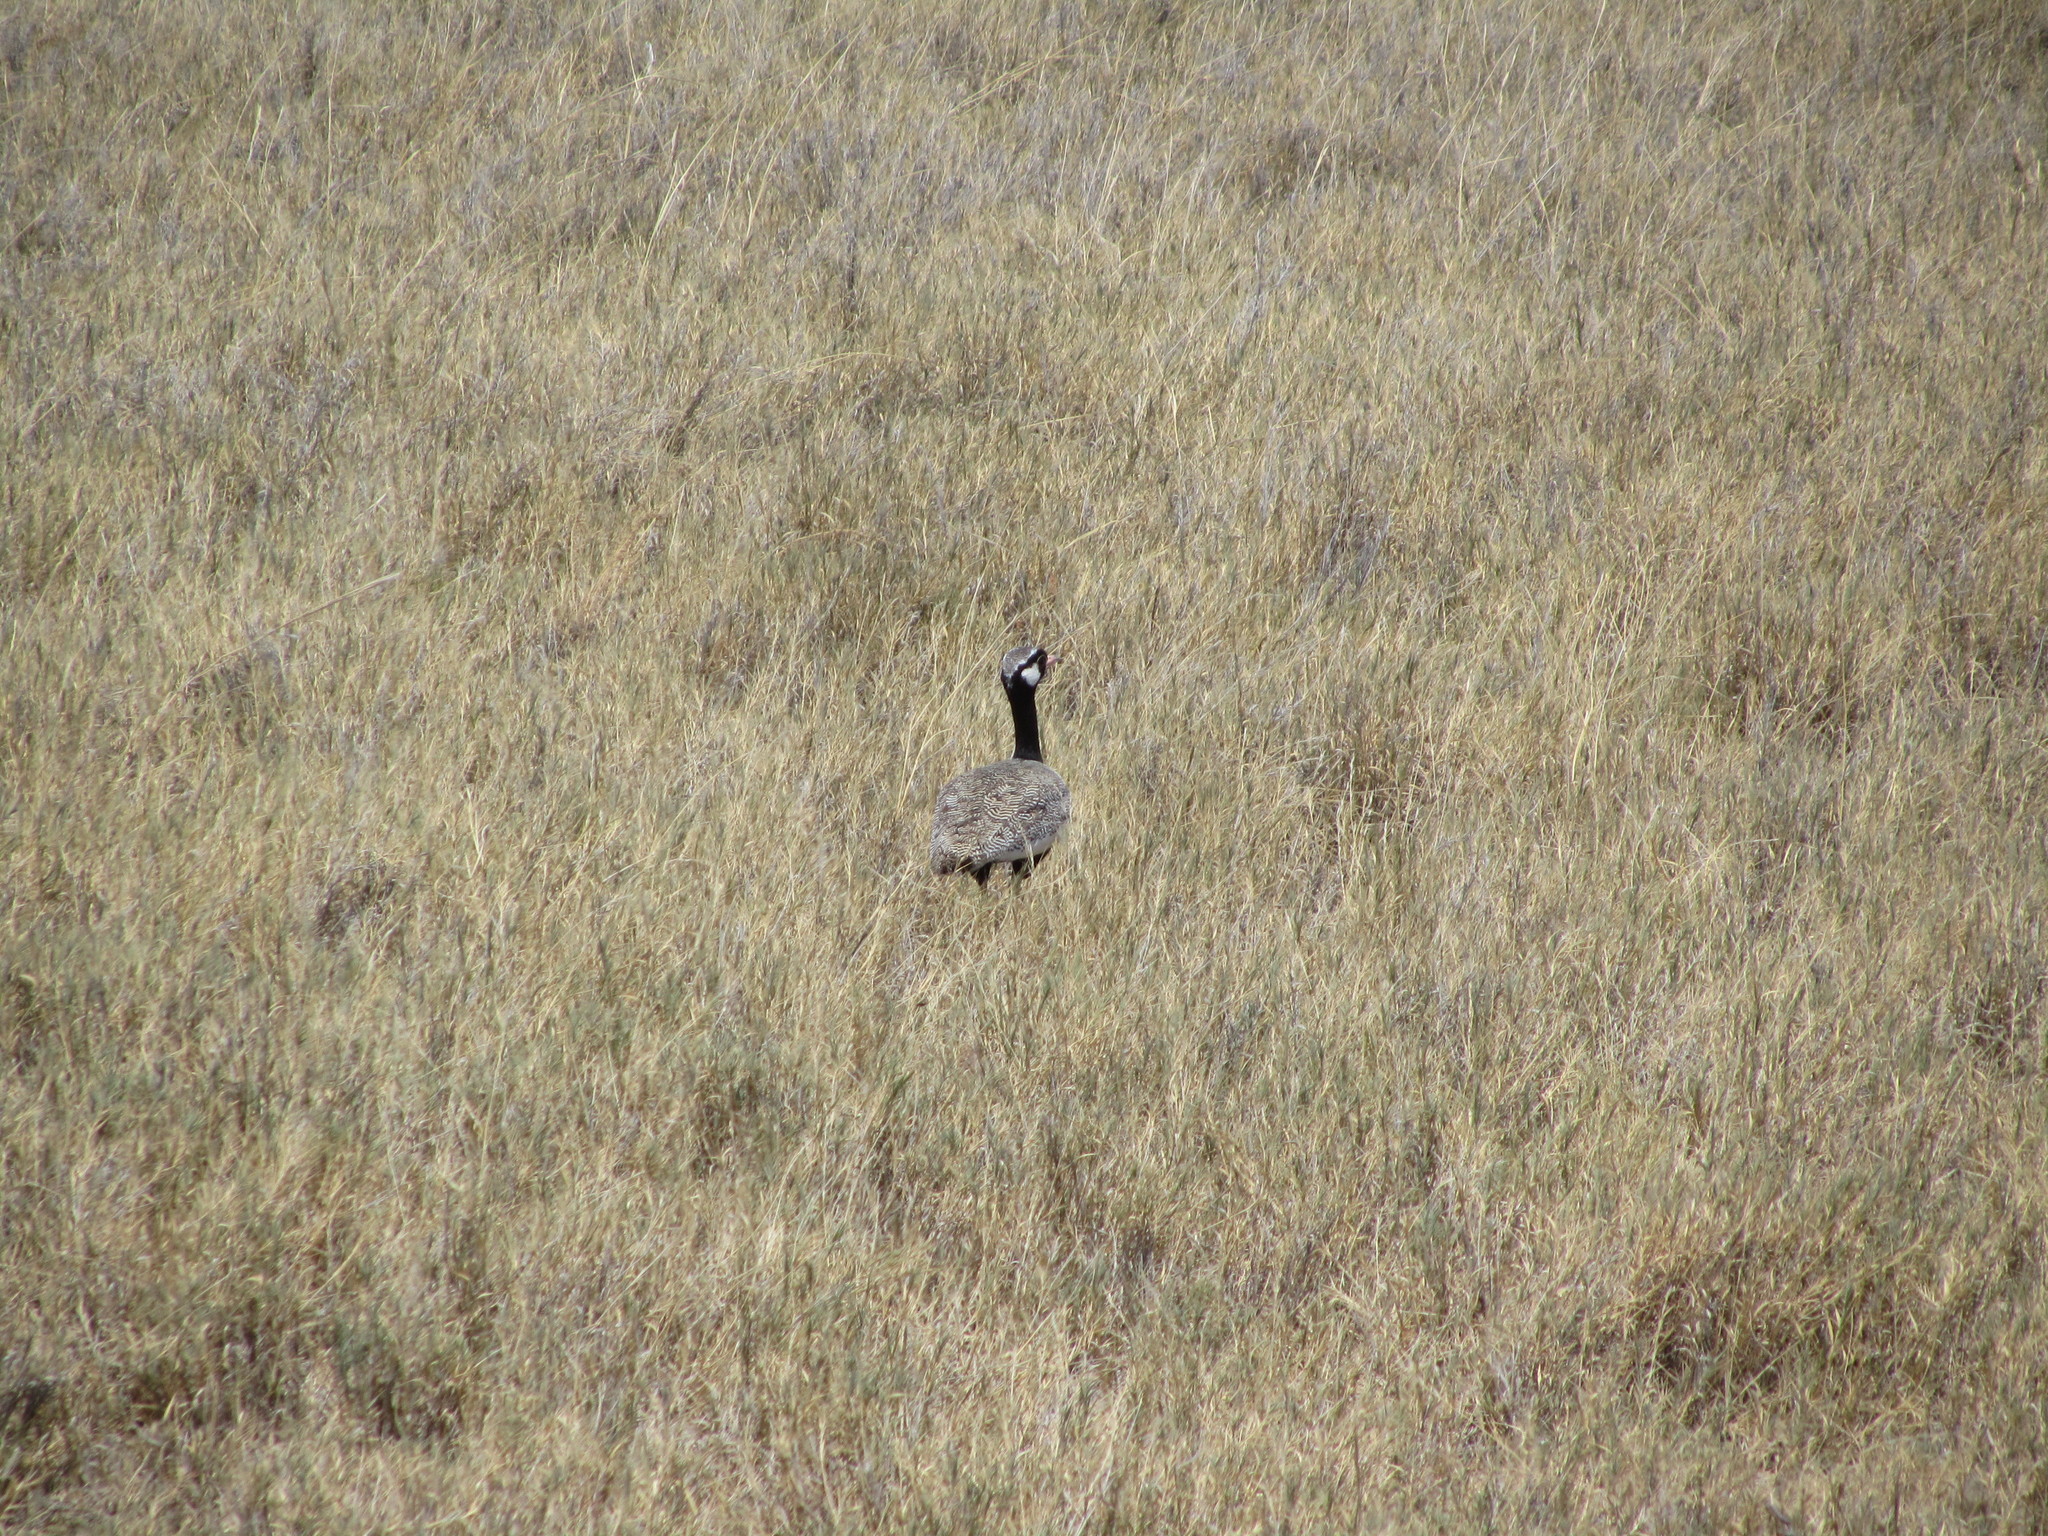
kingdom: Animalia
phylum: Chordata
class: Aves
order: Otidiformes
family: Otididae
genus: Afrotis
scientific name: Afrotis afraoides
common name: Northern black korhaan
